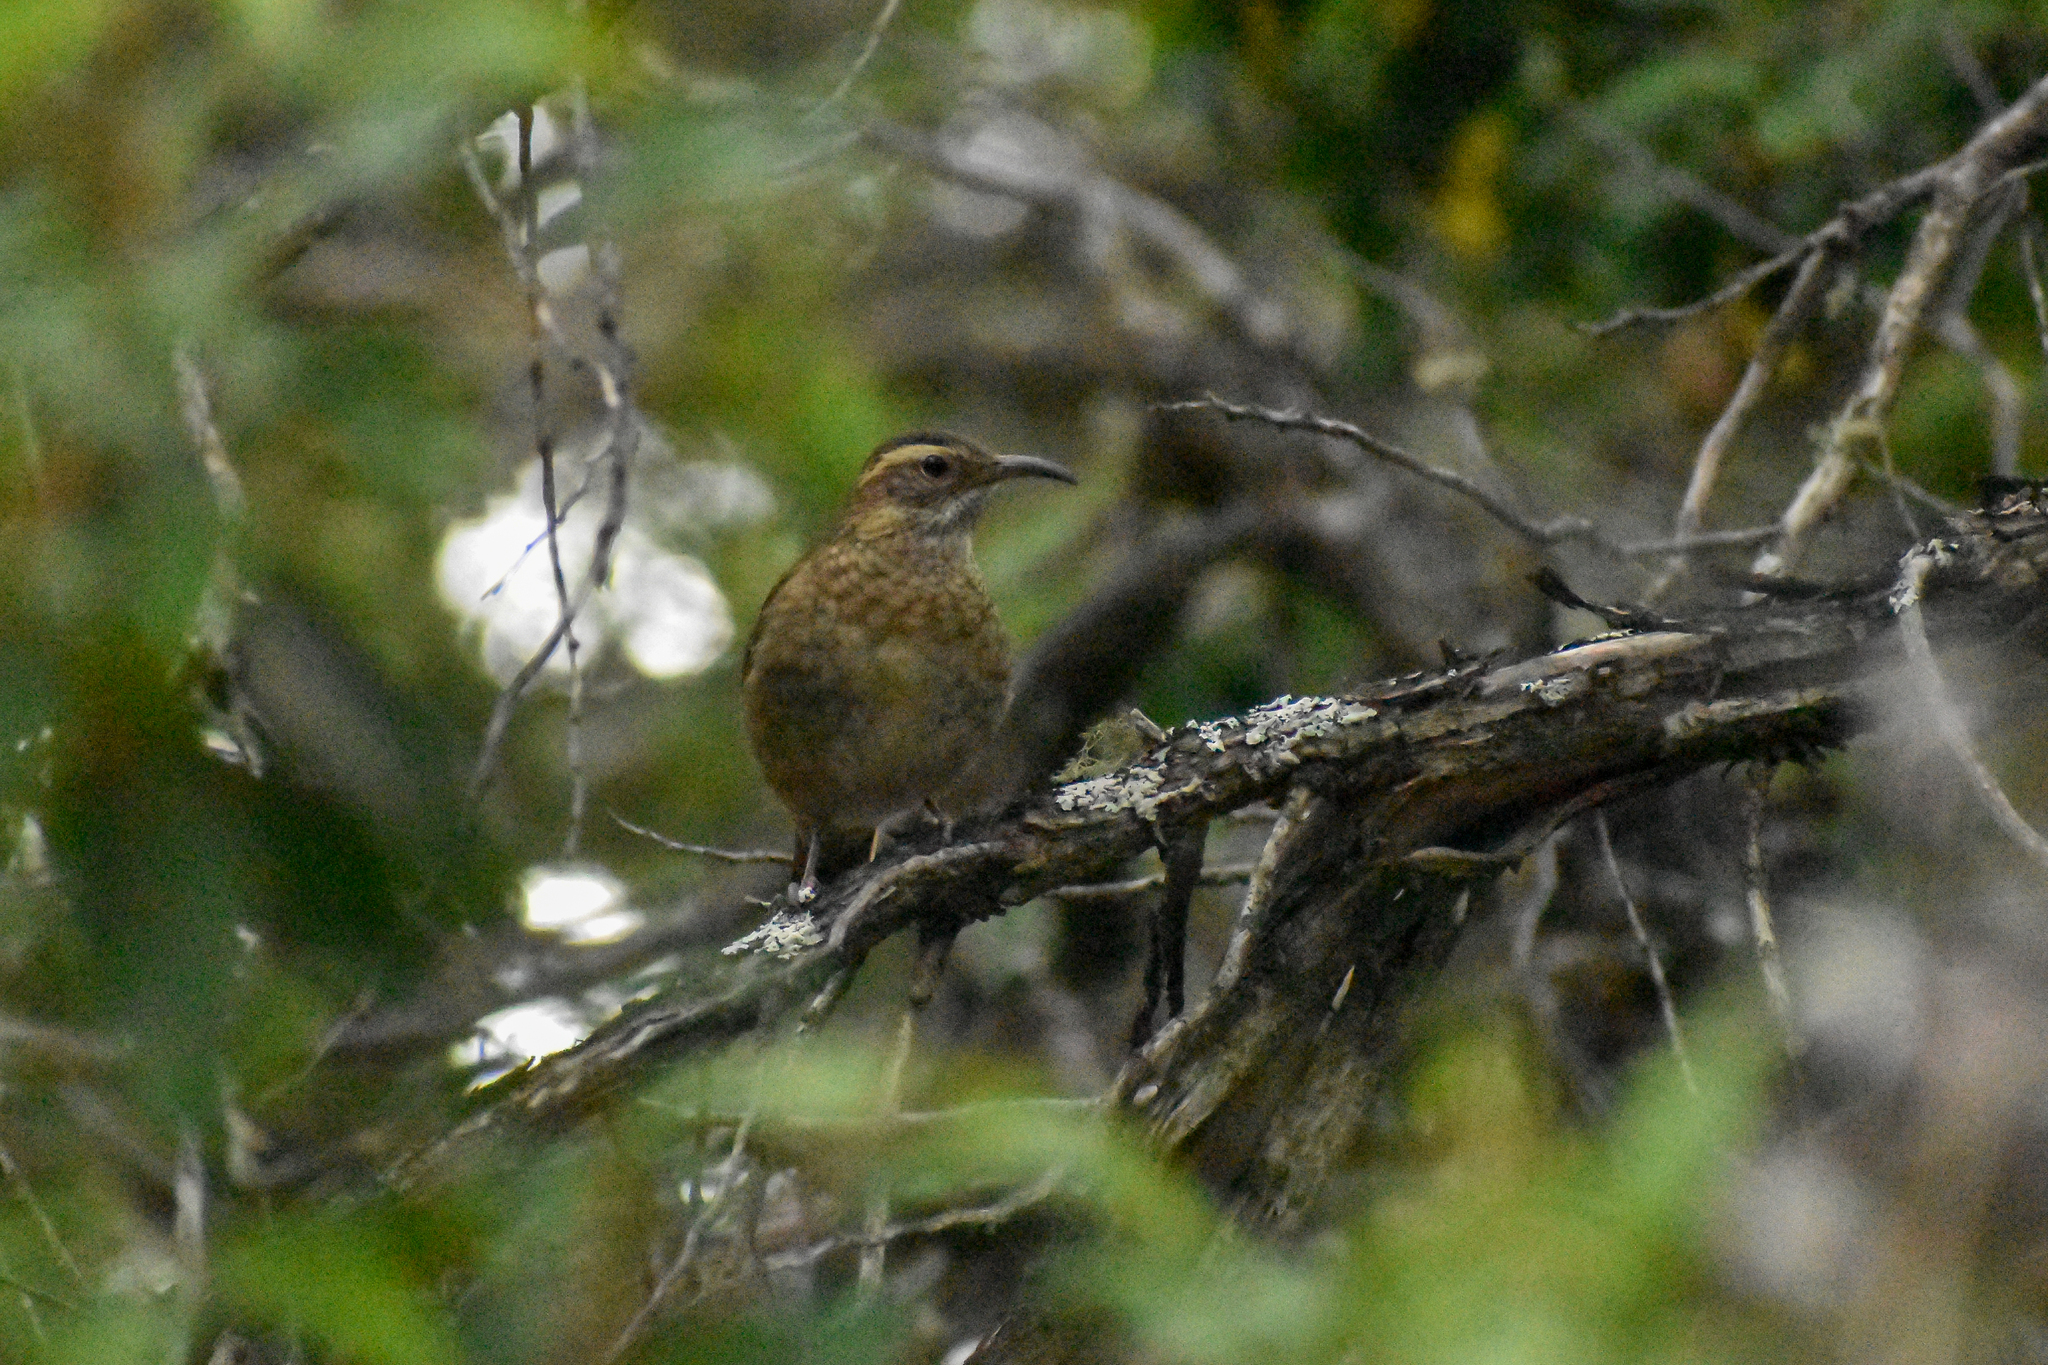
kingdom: Animalia
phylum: Chordata
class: Aves
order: Passeriformes
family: Furnariidae
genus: Upucerthia
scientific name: Upucerthia saturatior
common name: Patagonian forest earthcreeper
